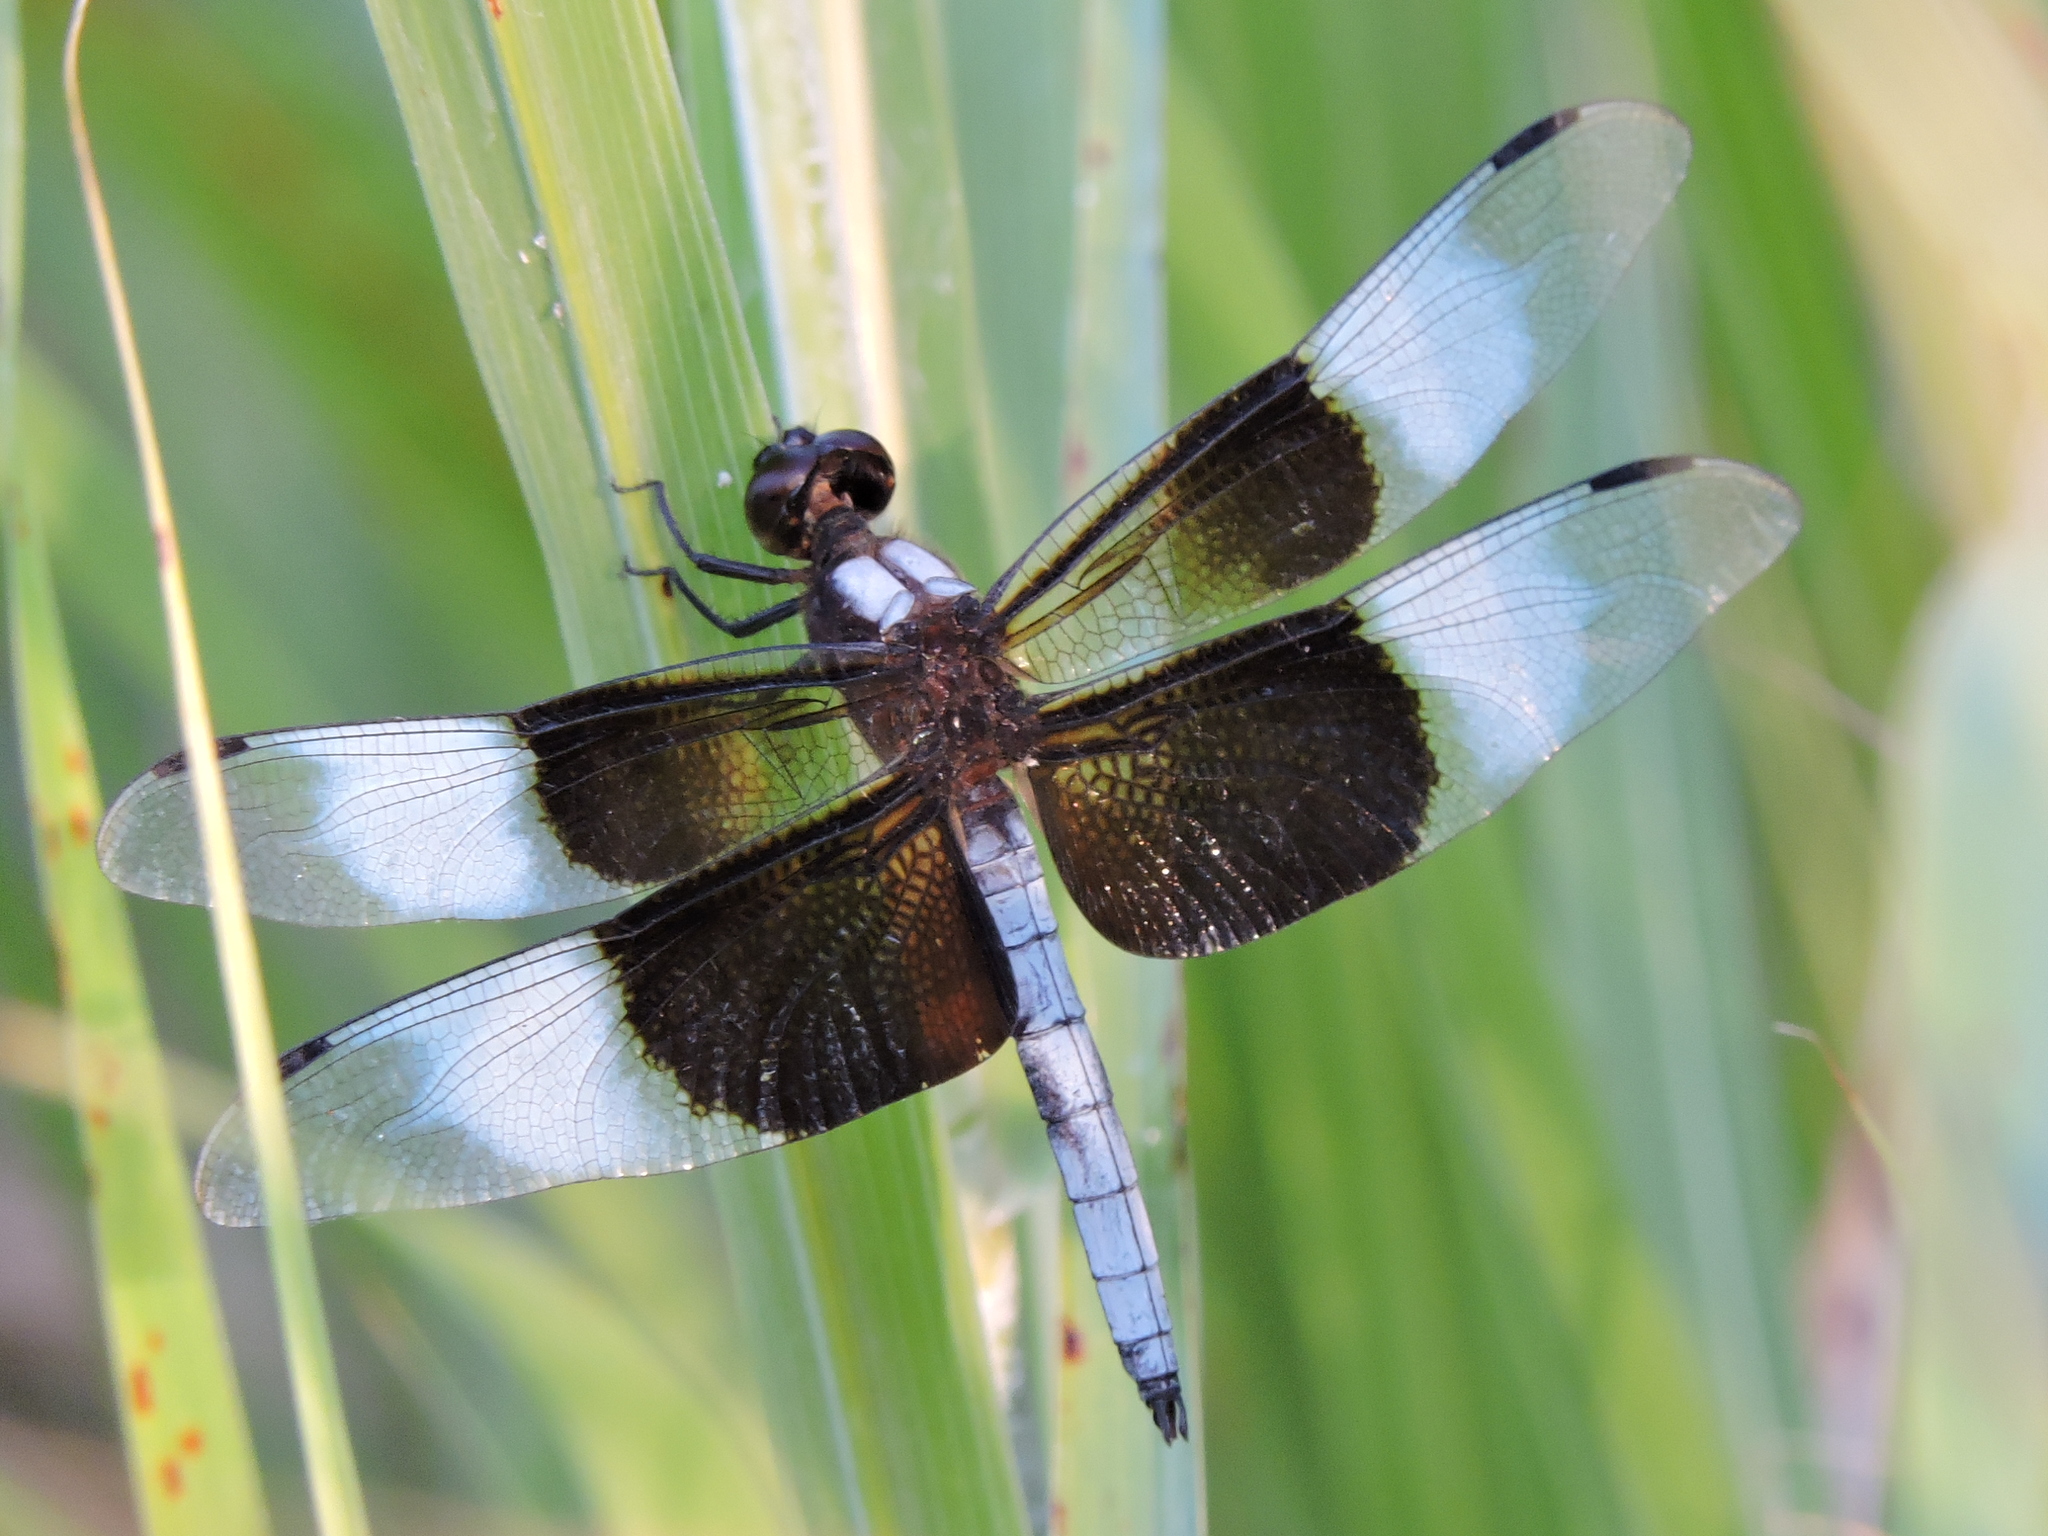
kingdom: Animalia
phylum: Arthropoda
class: Insecta
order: Odonata
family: Libellulidae
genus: Libellula
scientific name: Libellula luctuosa
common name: Widow skimmer
